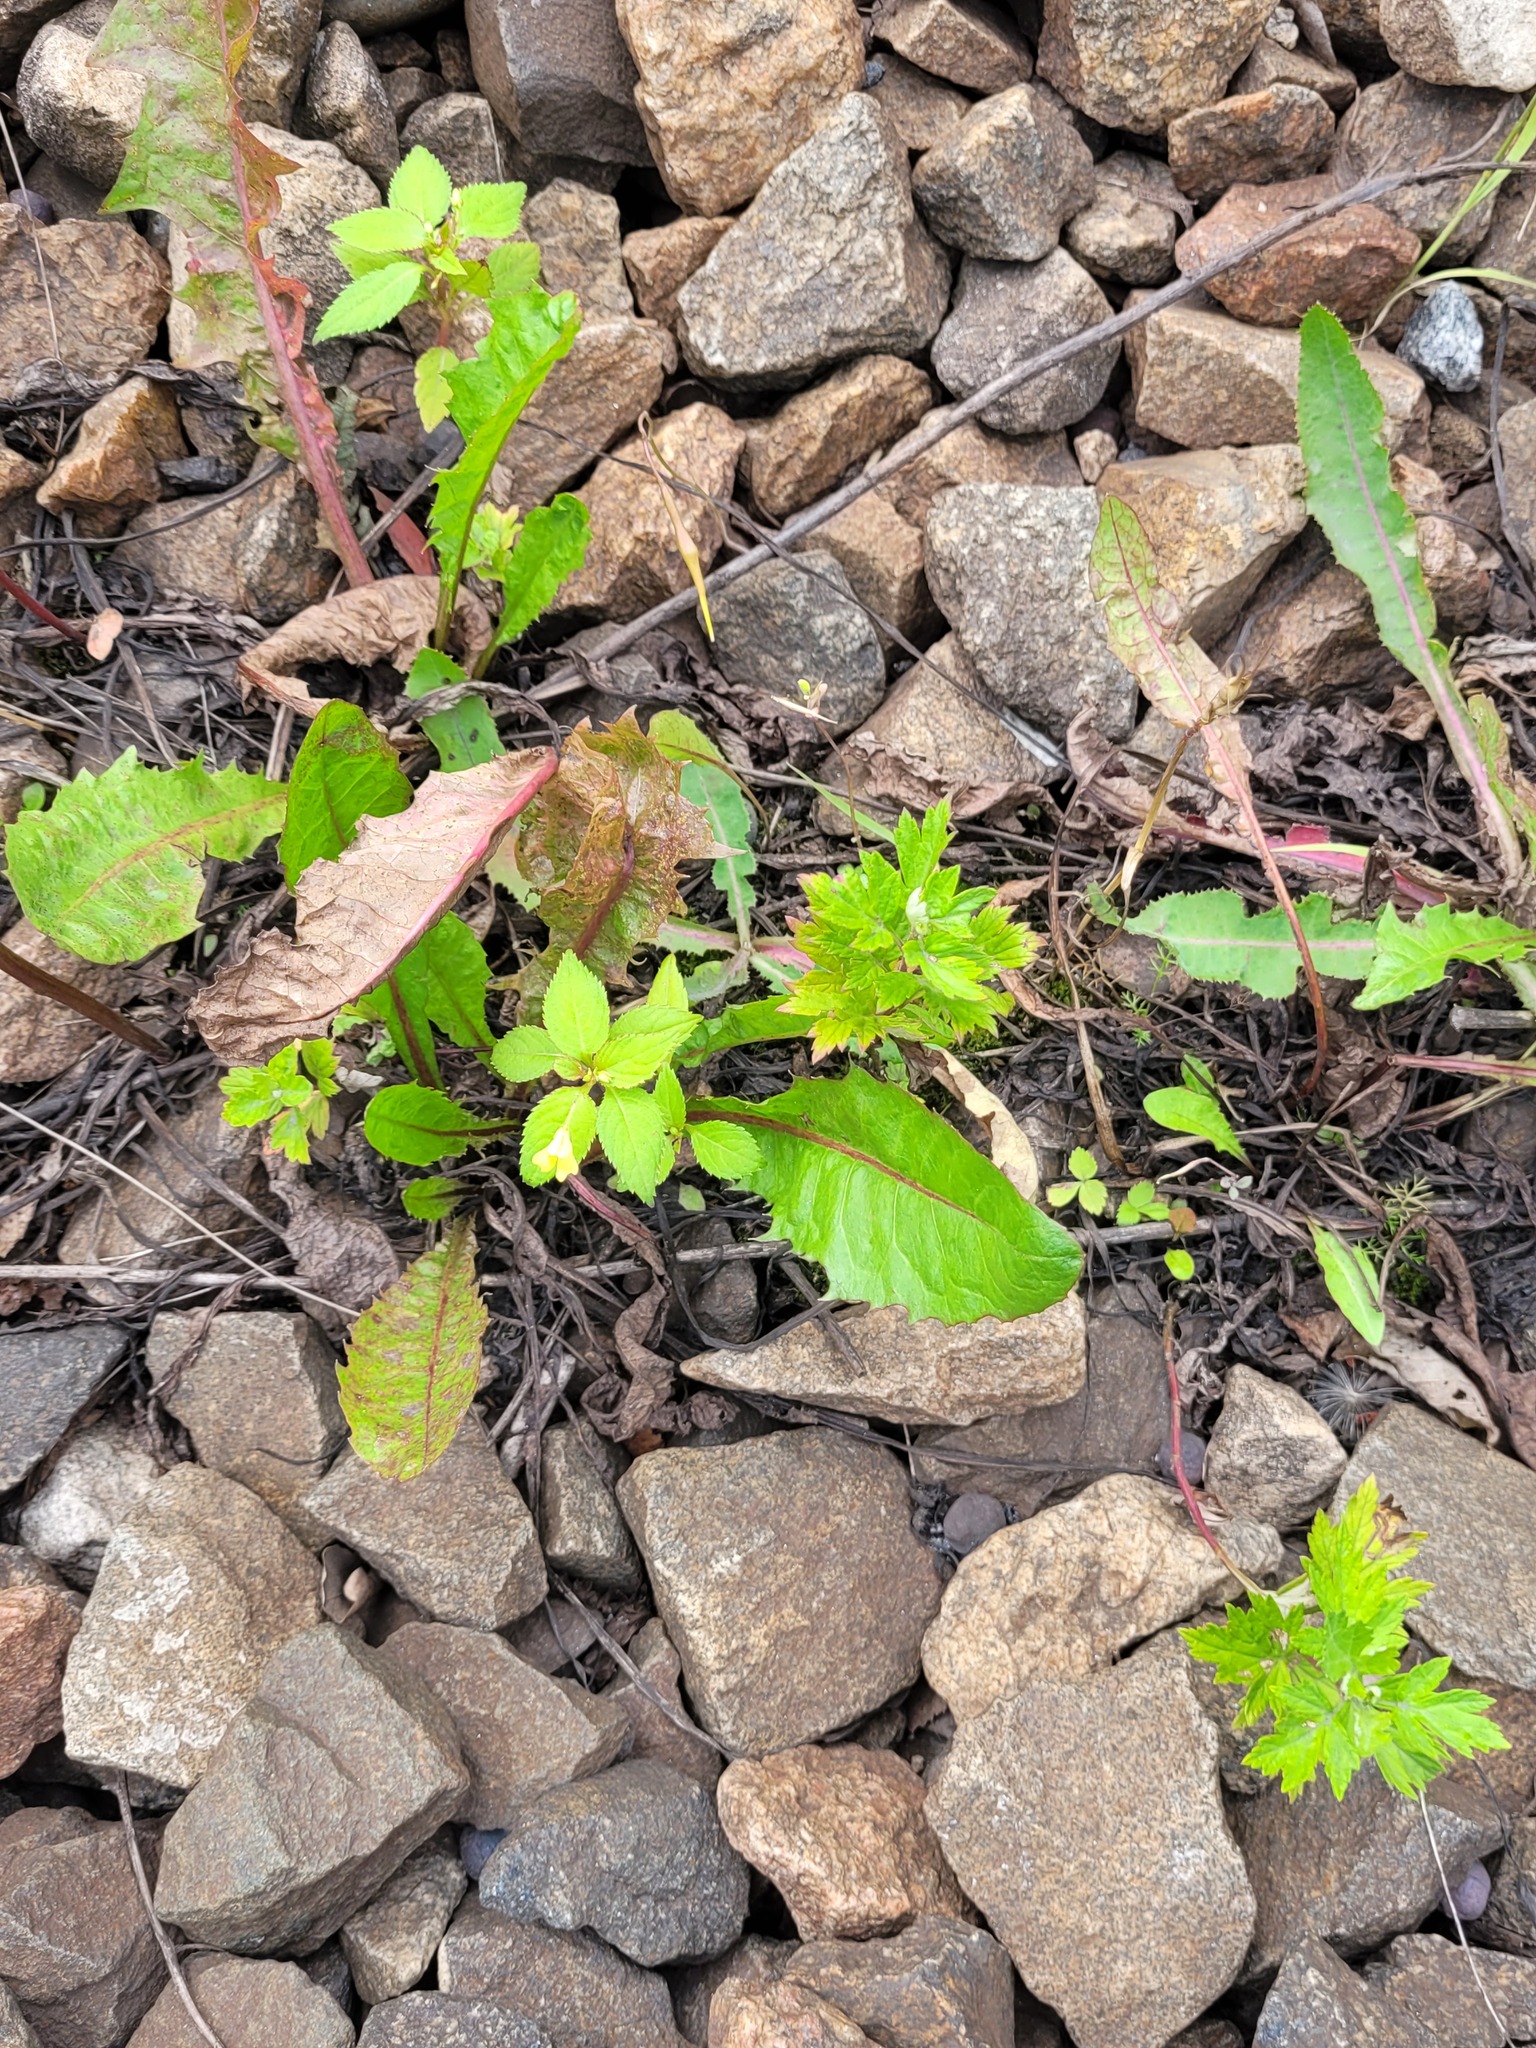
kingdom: Plantae
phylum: Tracheophyta
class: Magnoliopsida
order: Ericales
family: Balsaminaceae
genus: Impatiens
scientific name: Impatiens parviflora
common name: Small balsam
